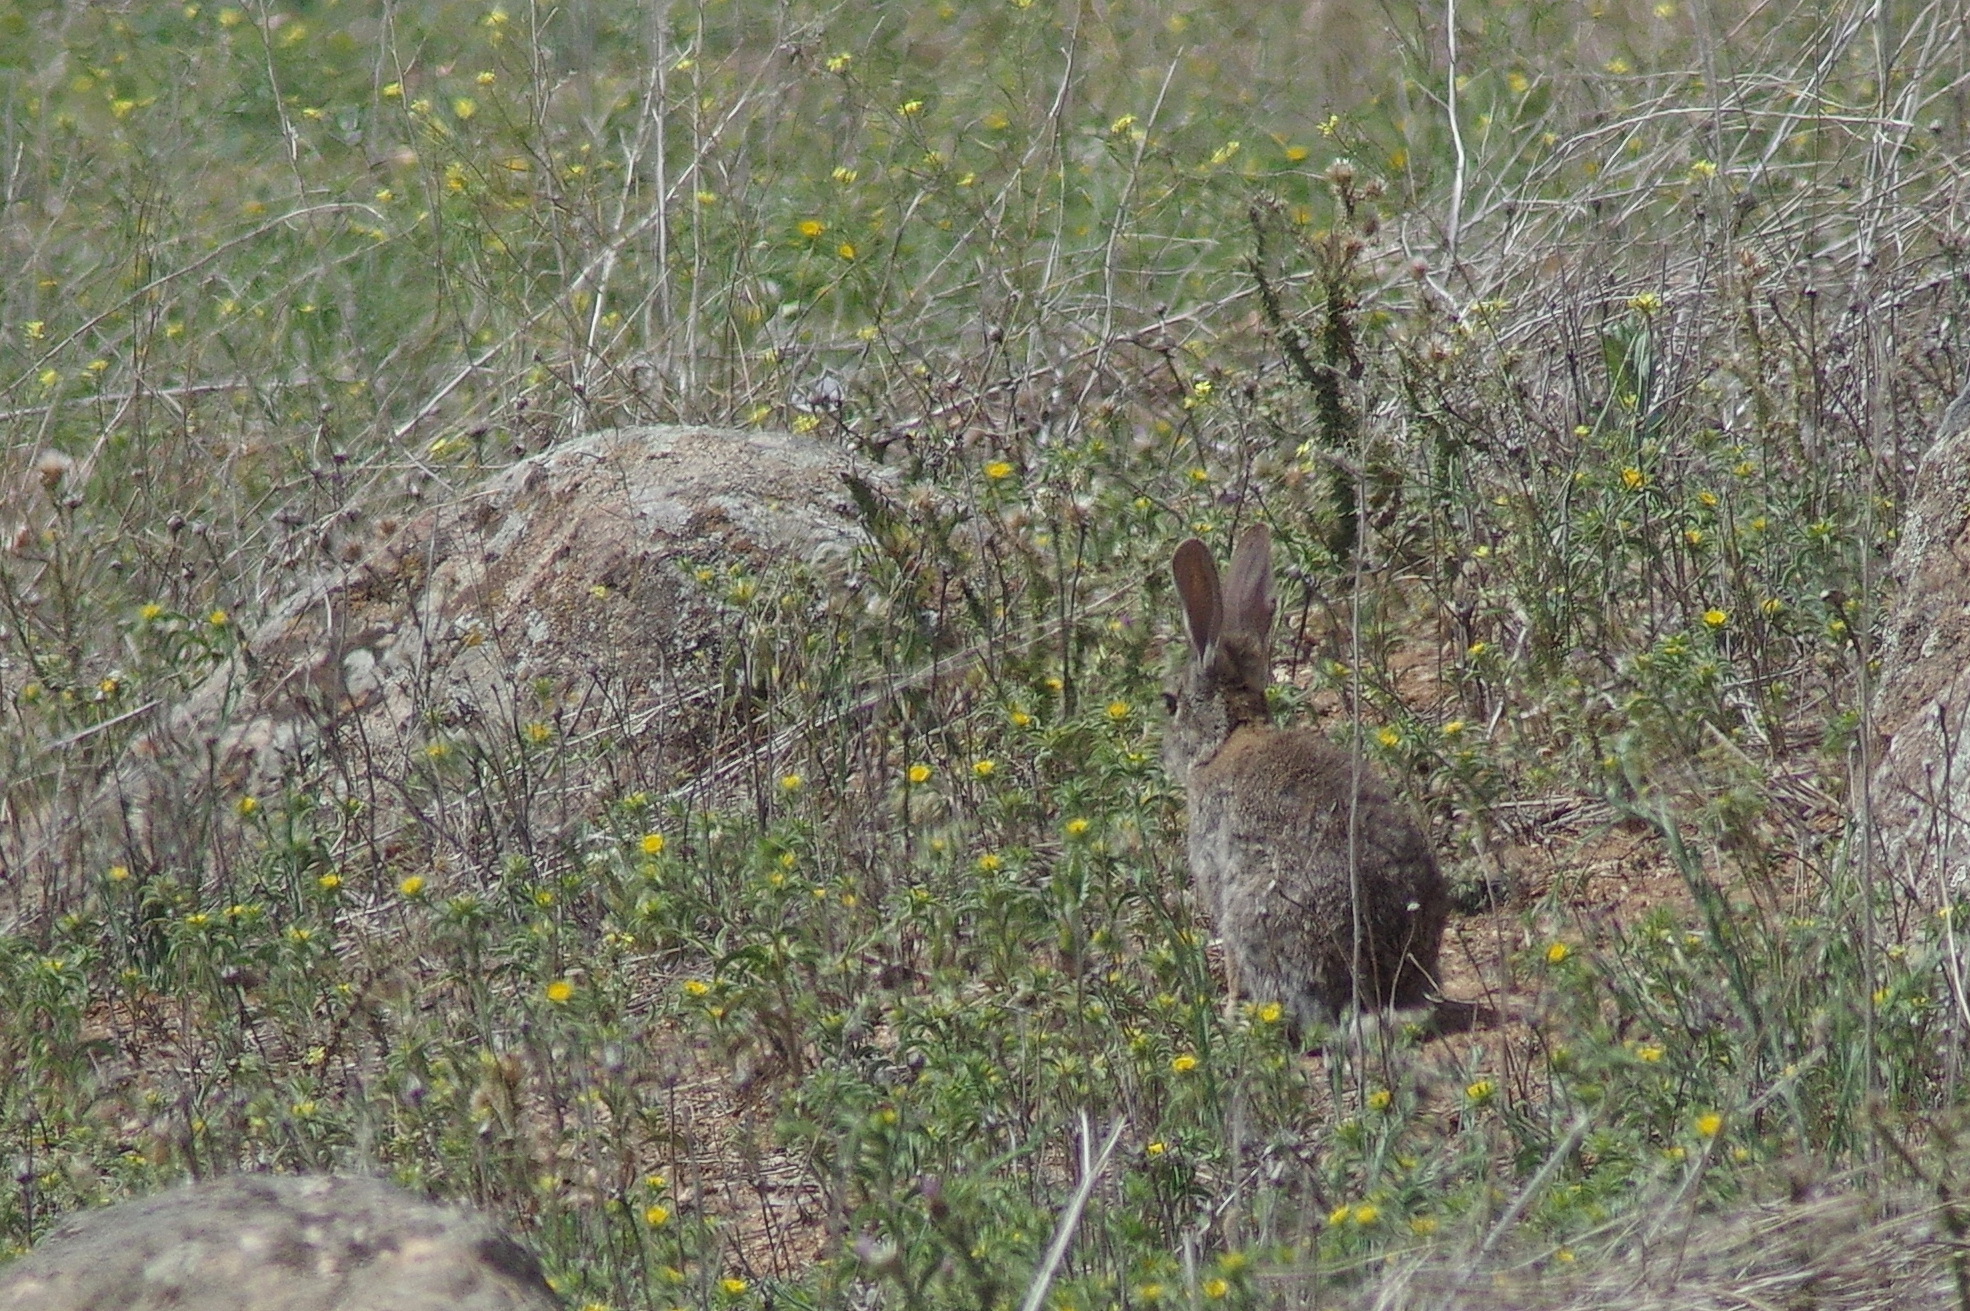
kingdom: Animalia
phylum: Chordata
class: Mammalia
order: Lagomorpha
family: Leporidae
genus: Oryctolagus
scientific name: Oryctolagus cuniculus
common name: European rabbit
